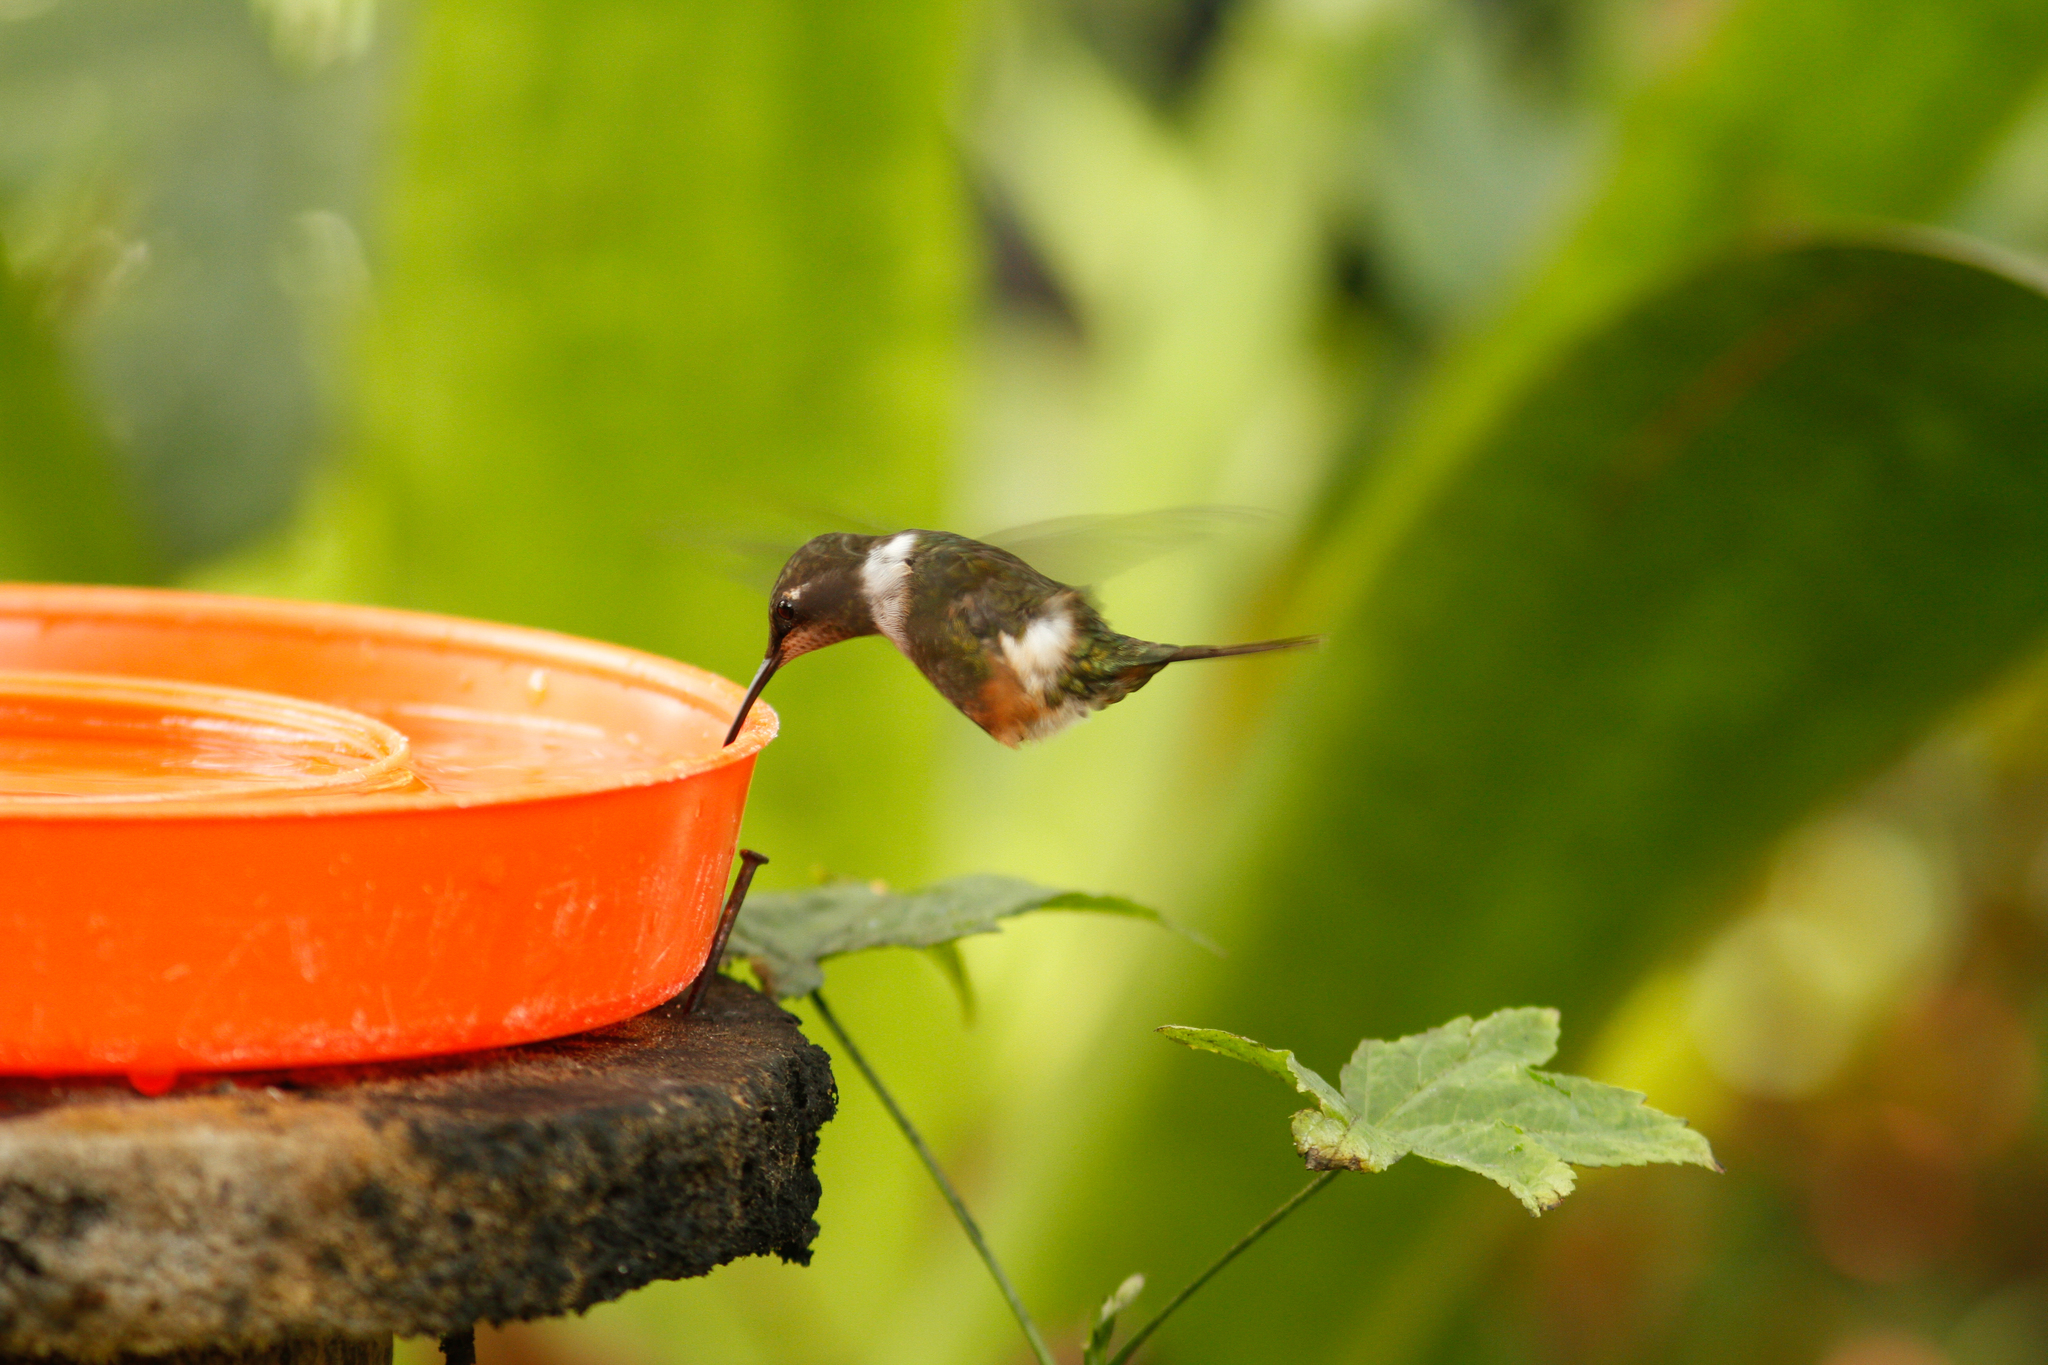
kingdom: Animalia
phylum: Chordata
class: Aves
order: Apodiformes
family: Trochilidae
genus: Calliphlox
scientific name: Calliphlox mitchellii
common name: Purple-throated woodstar
